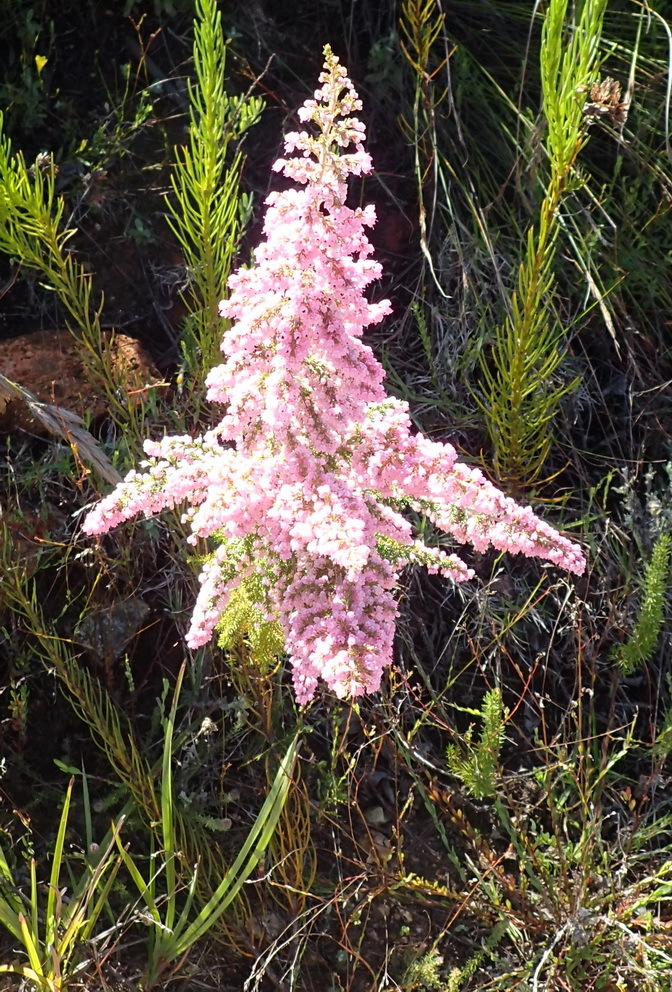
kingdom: Plantae
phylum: Tracheophyta
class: Magnoliopsida
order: Ericales
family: Ericaceae
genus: Erica
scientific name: Erica sparsa
